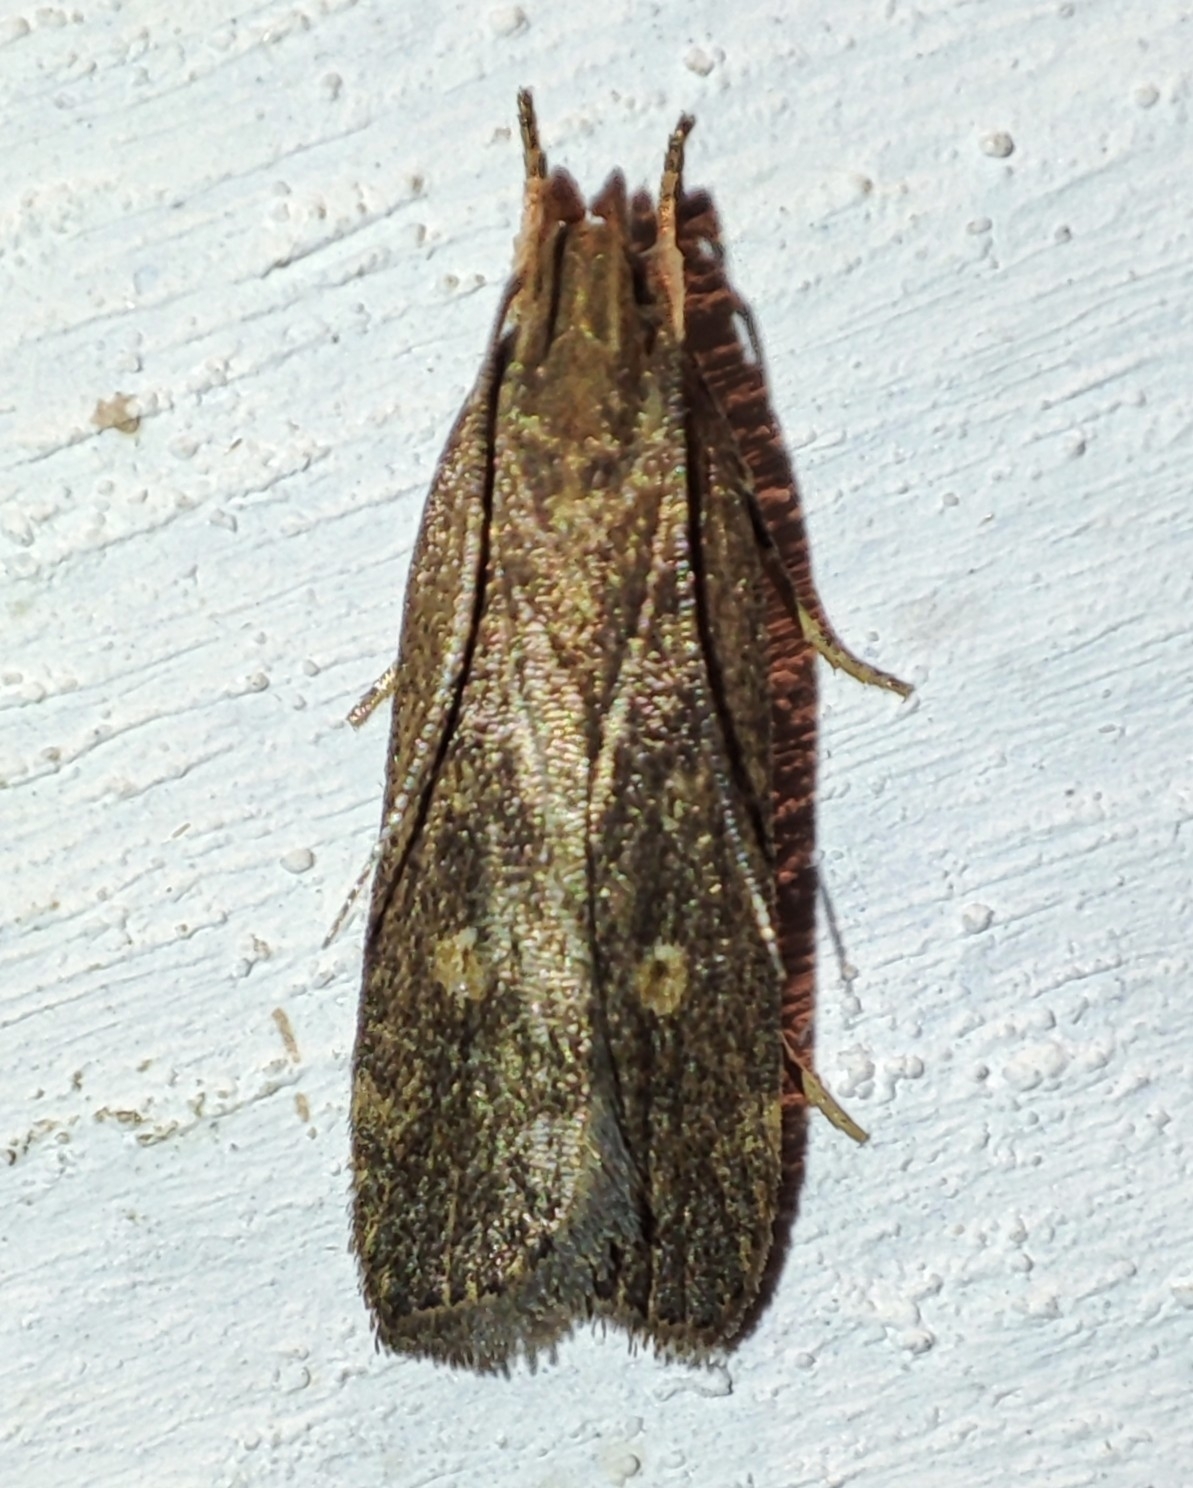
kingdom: Animalia
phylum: Arthropoda
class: Insecta
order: Lepidoptera
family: Gelechiidae
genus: Helcystogramma
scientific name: Helcystogramma triannulella
